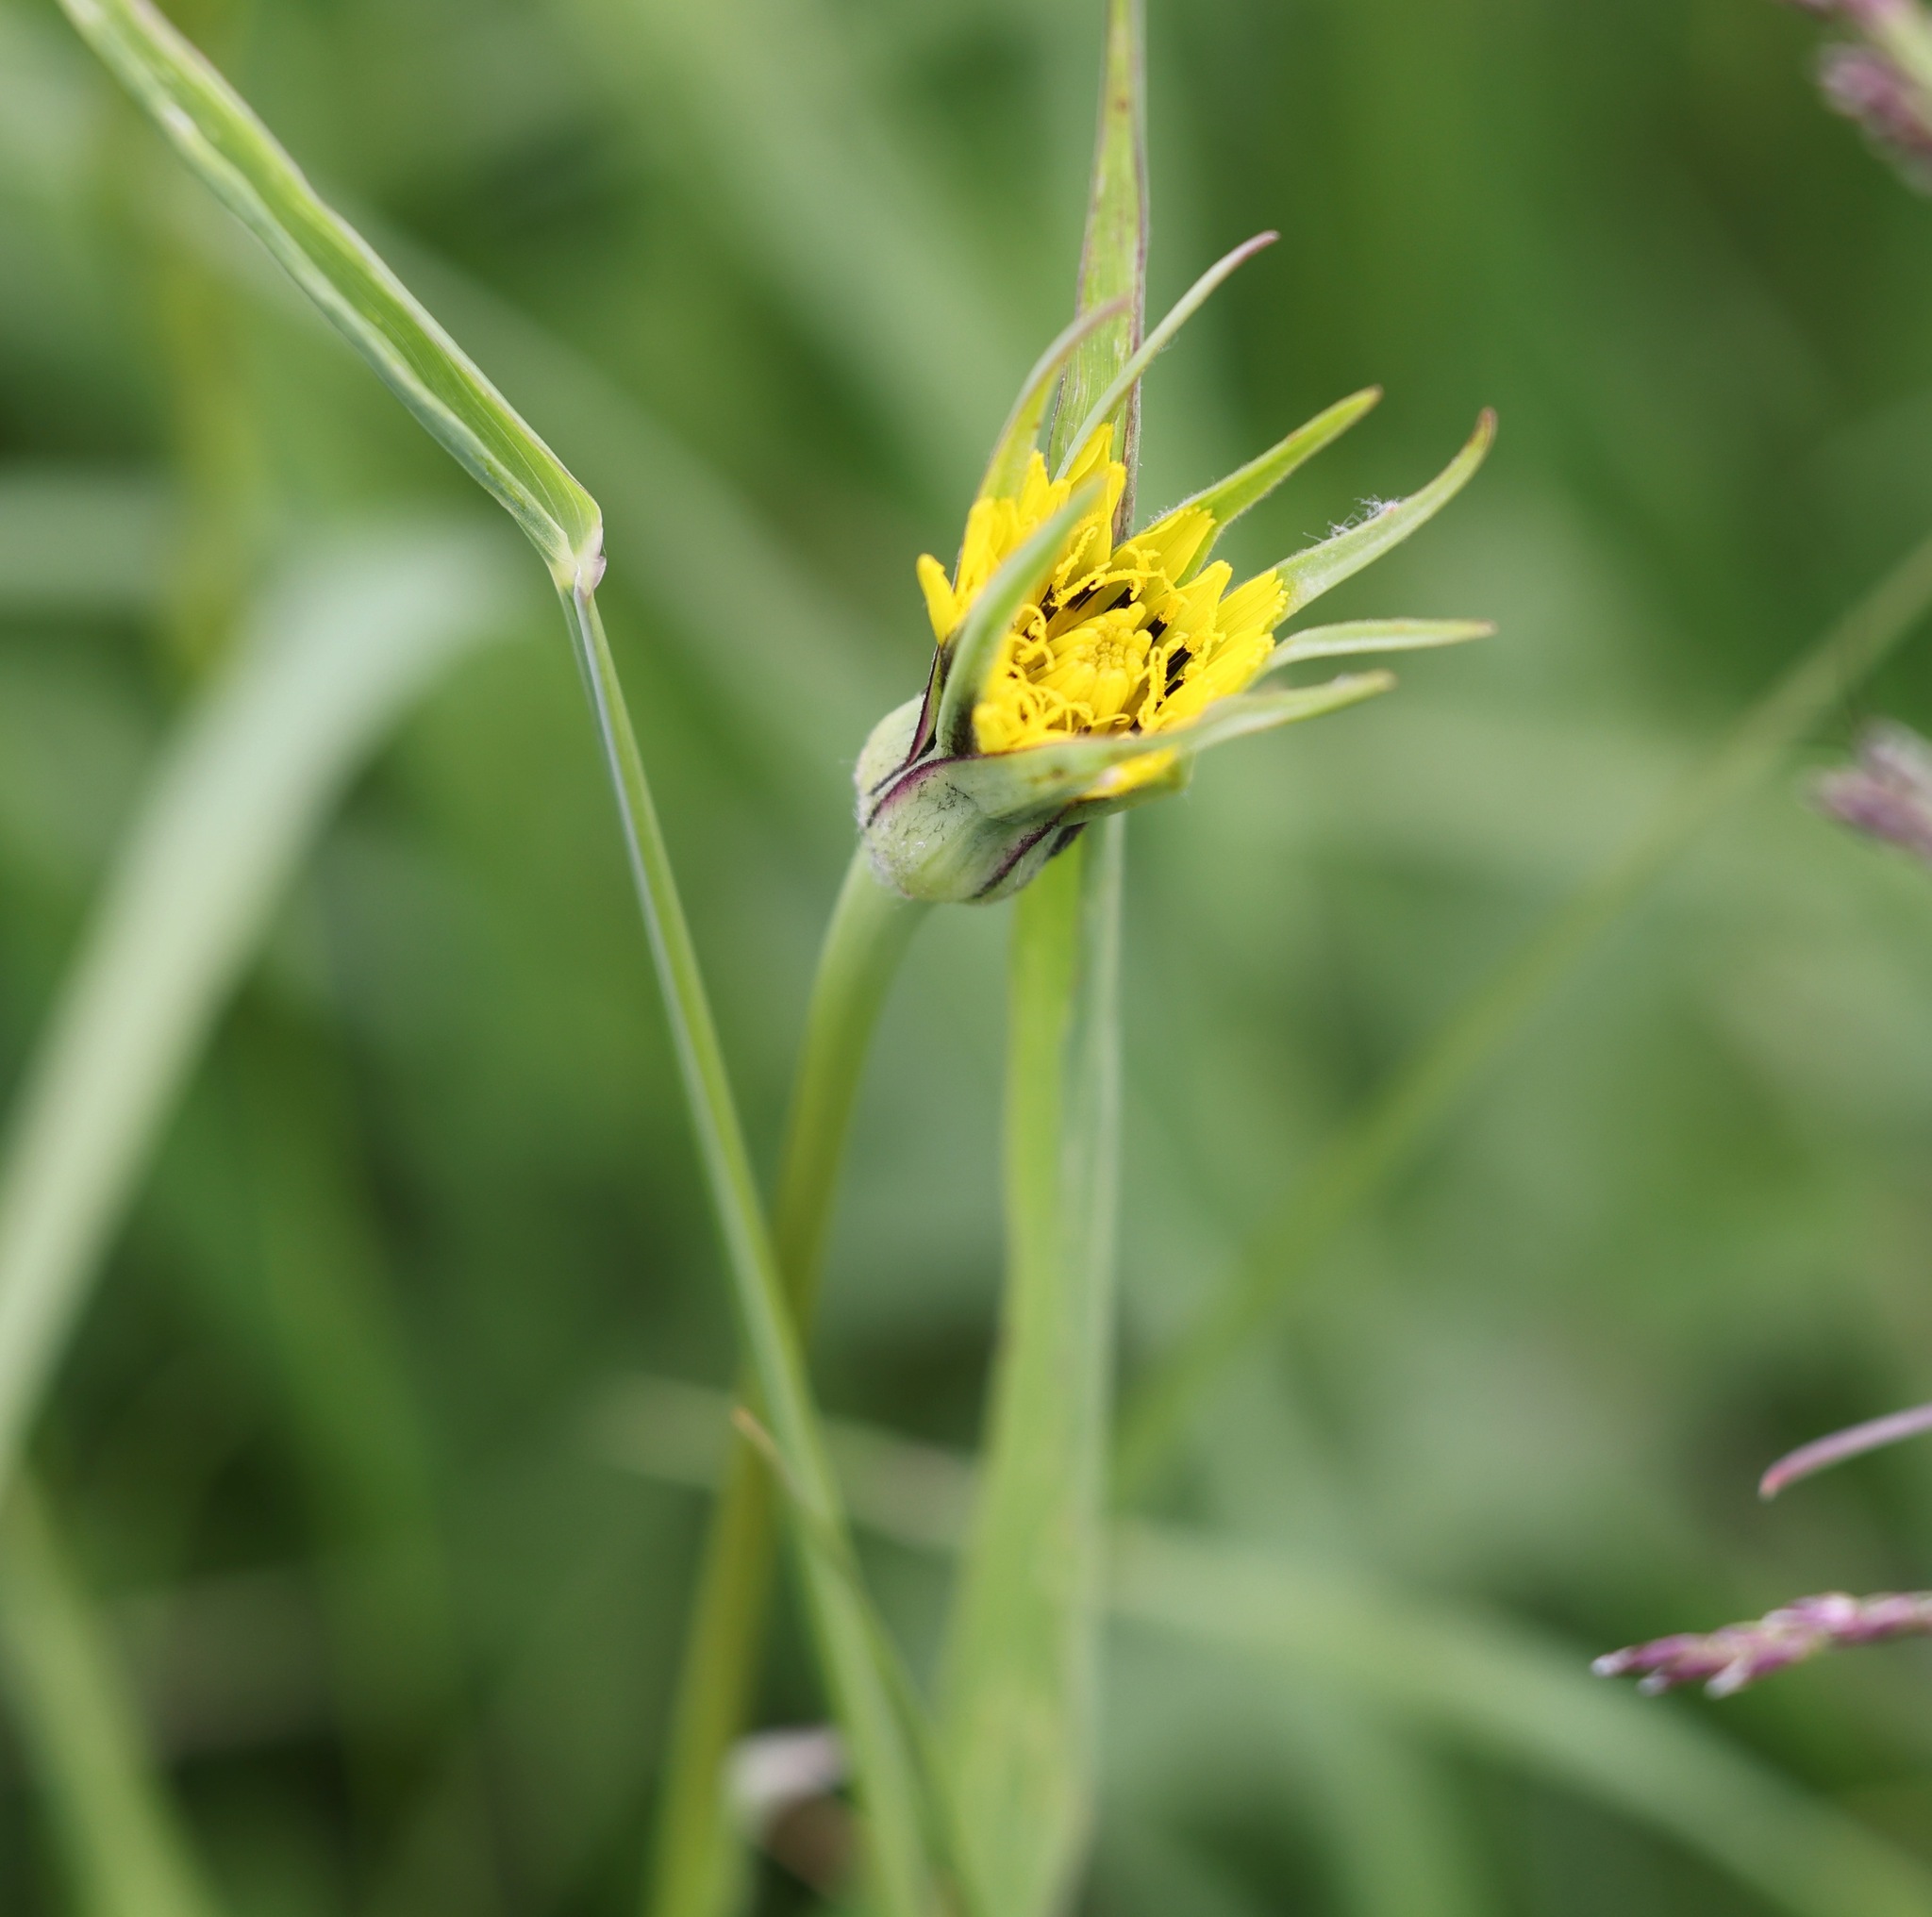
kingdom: Plantae
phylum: Tracheophyta
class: Magnoliopsida
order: Asterales
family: Asteraceae
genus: Tragopogon
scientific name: Tragopogon pratensis
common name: Goat's-beard
